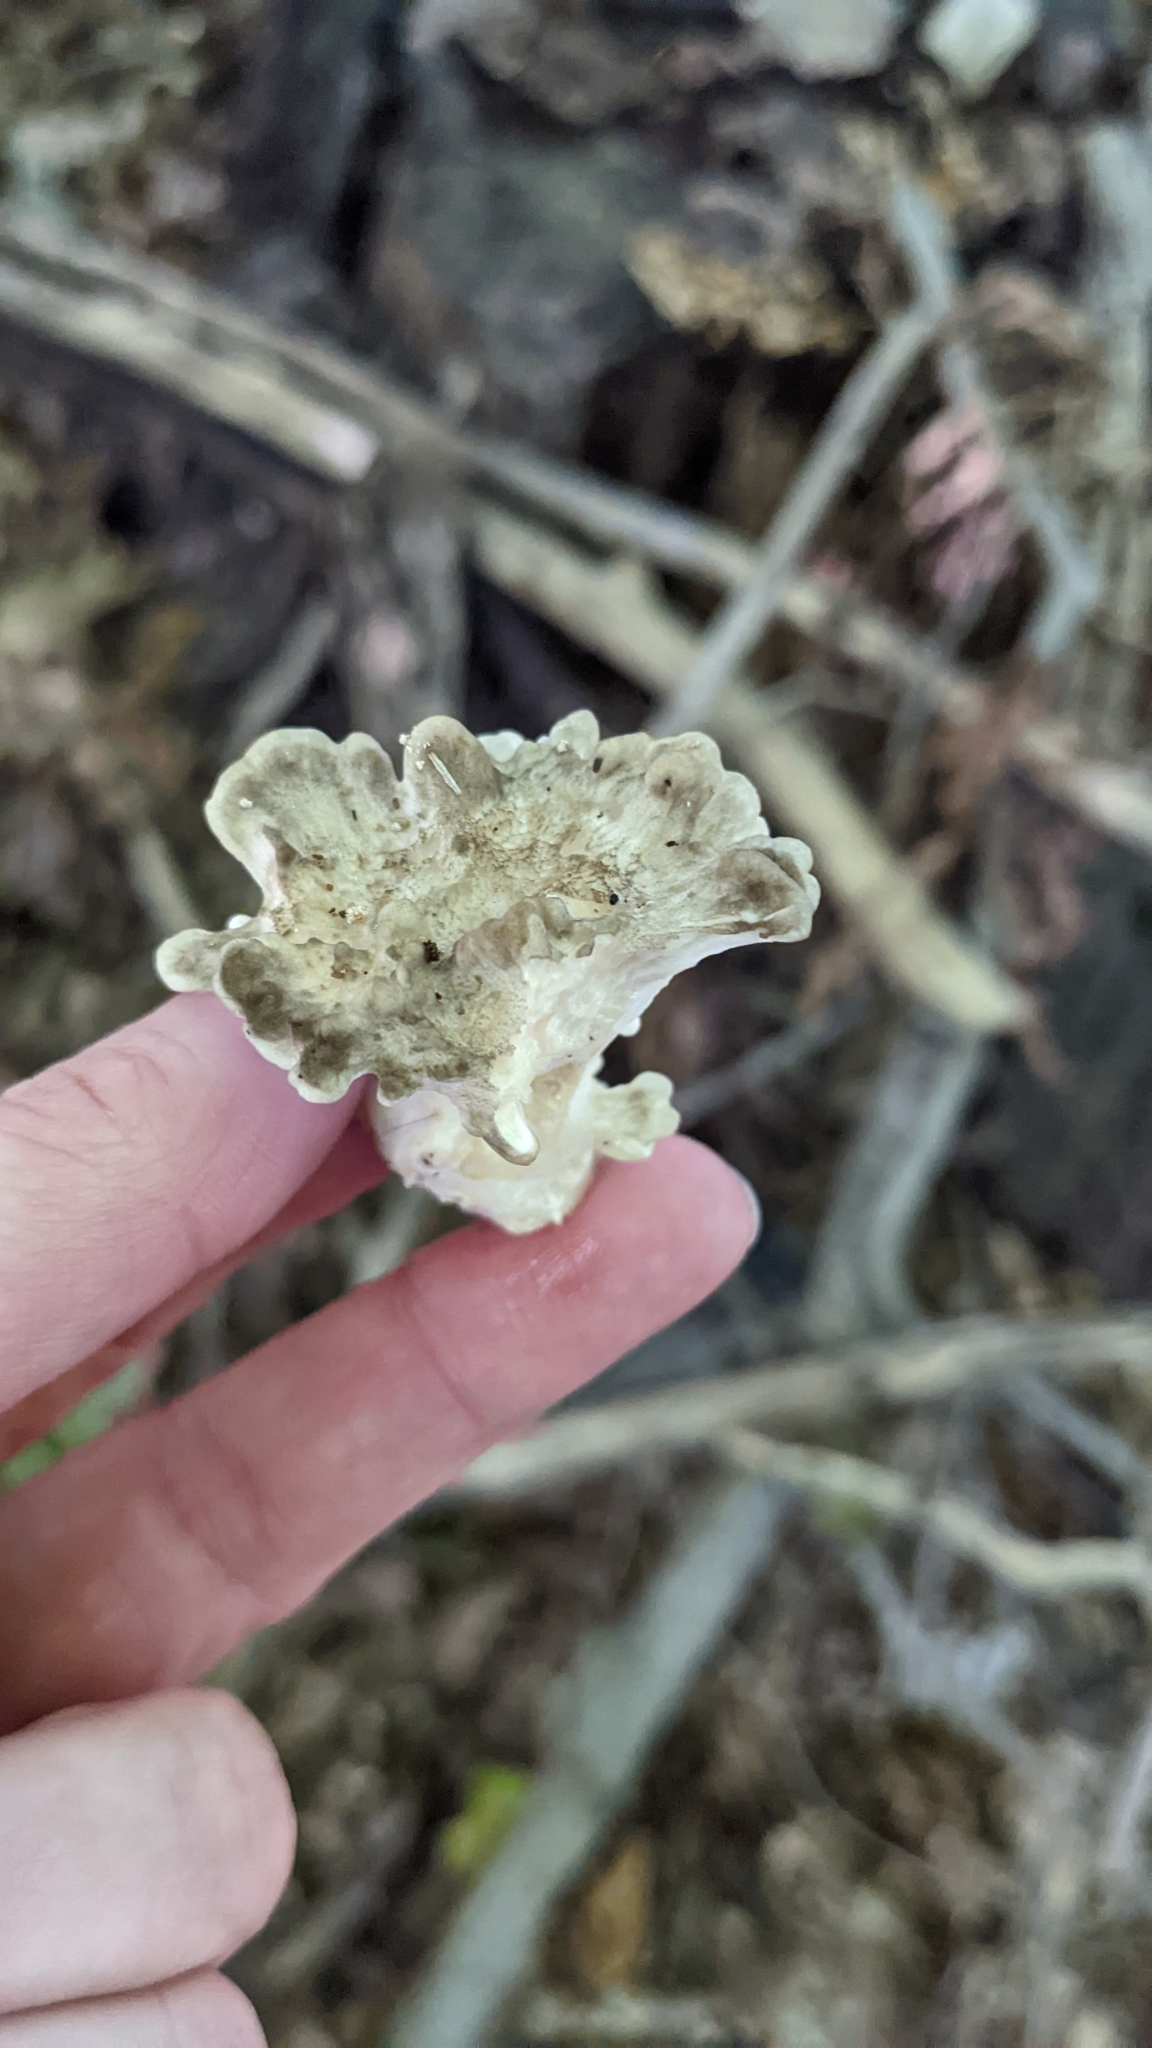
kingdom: Fungi
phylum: Basidiomycota
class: Agaricomycetes
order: Polyporales
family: Grifolaceae
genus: Grifola
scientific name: Grifola frondosa
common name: Hen of the woods
